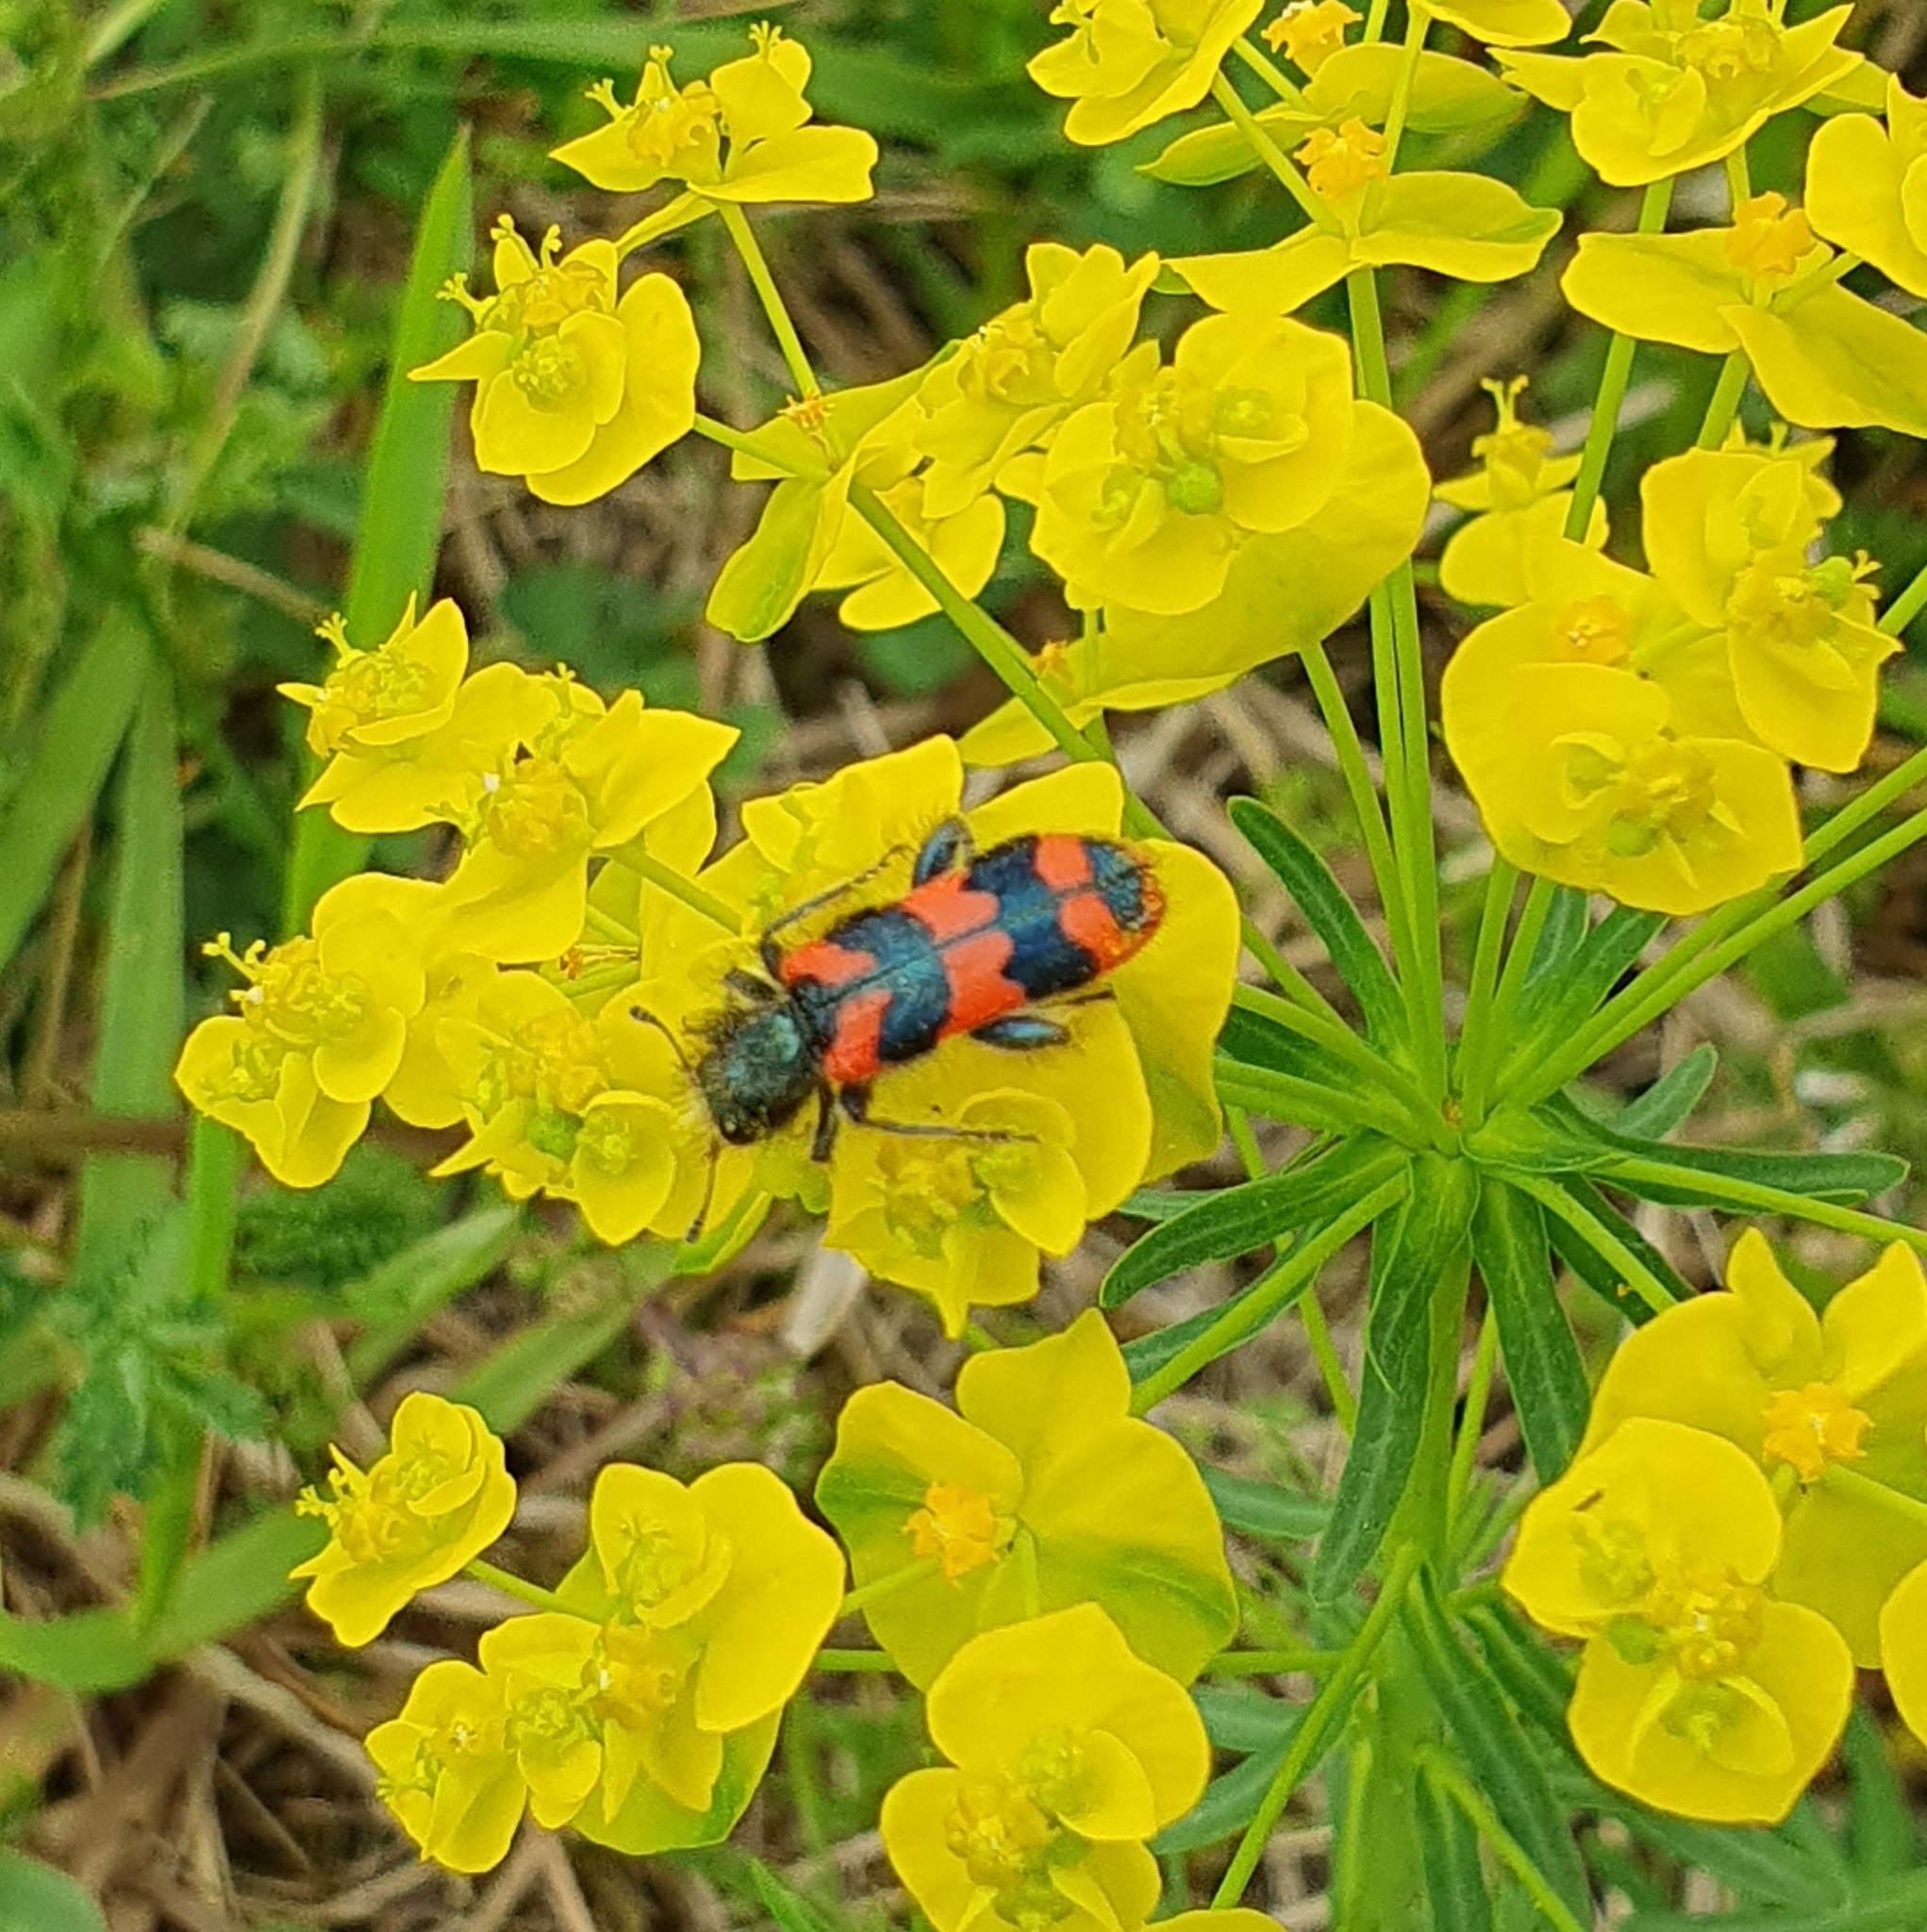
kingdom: Animalia
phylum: Arthropoda
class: Insecta
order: Coleoptera
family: Cleridae
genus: Trichodes
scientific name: Trichodes alvearius
